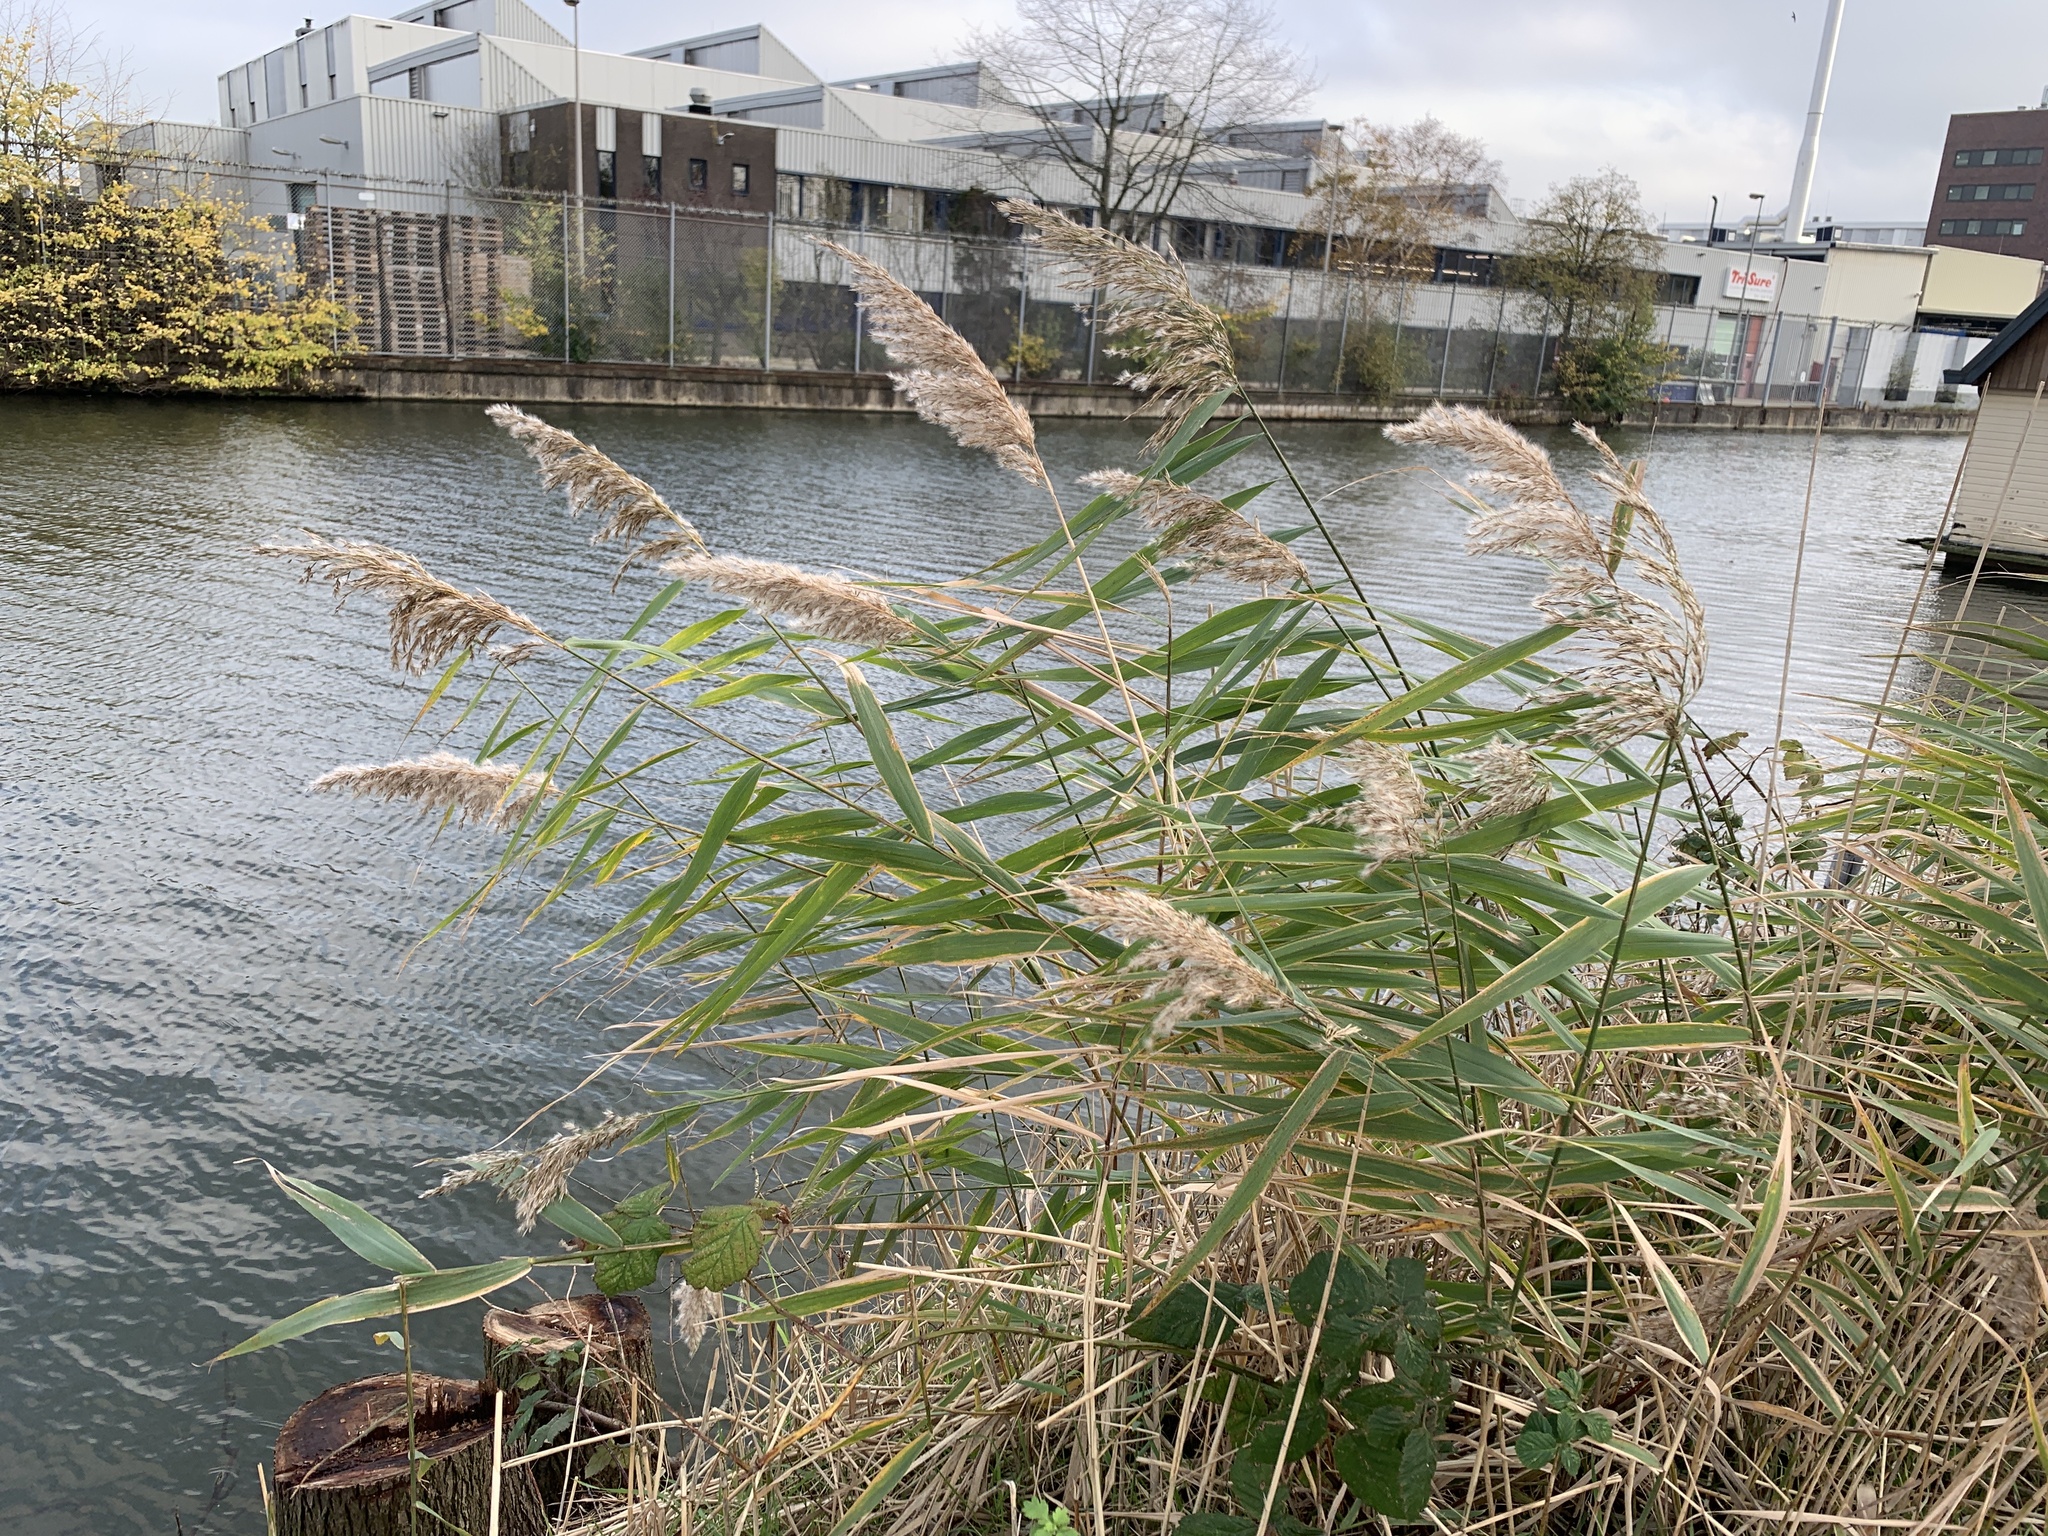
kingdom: Plantae
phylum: Tracheophyta
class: Liliopsida
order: Poales
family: Poaceae
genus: Phragmites
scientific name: Phragmites australis
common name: Common reed
